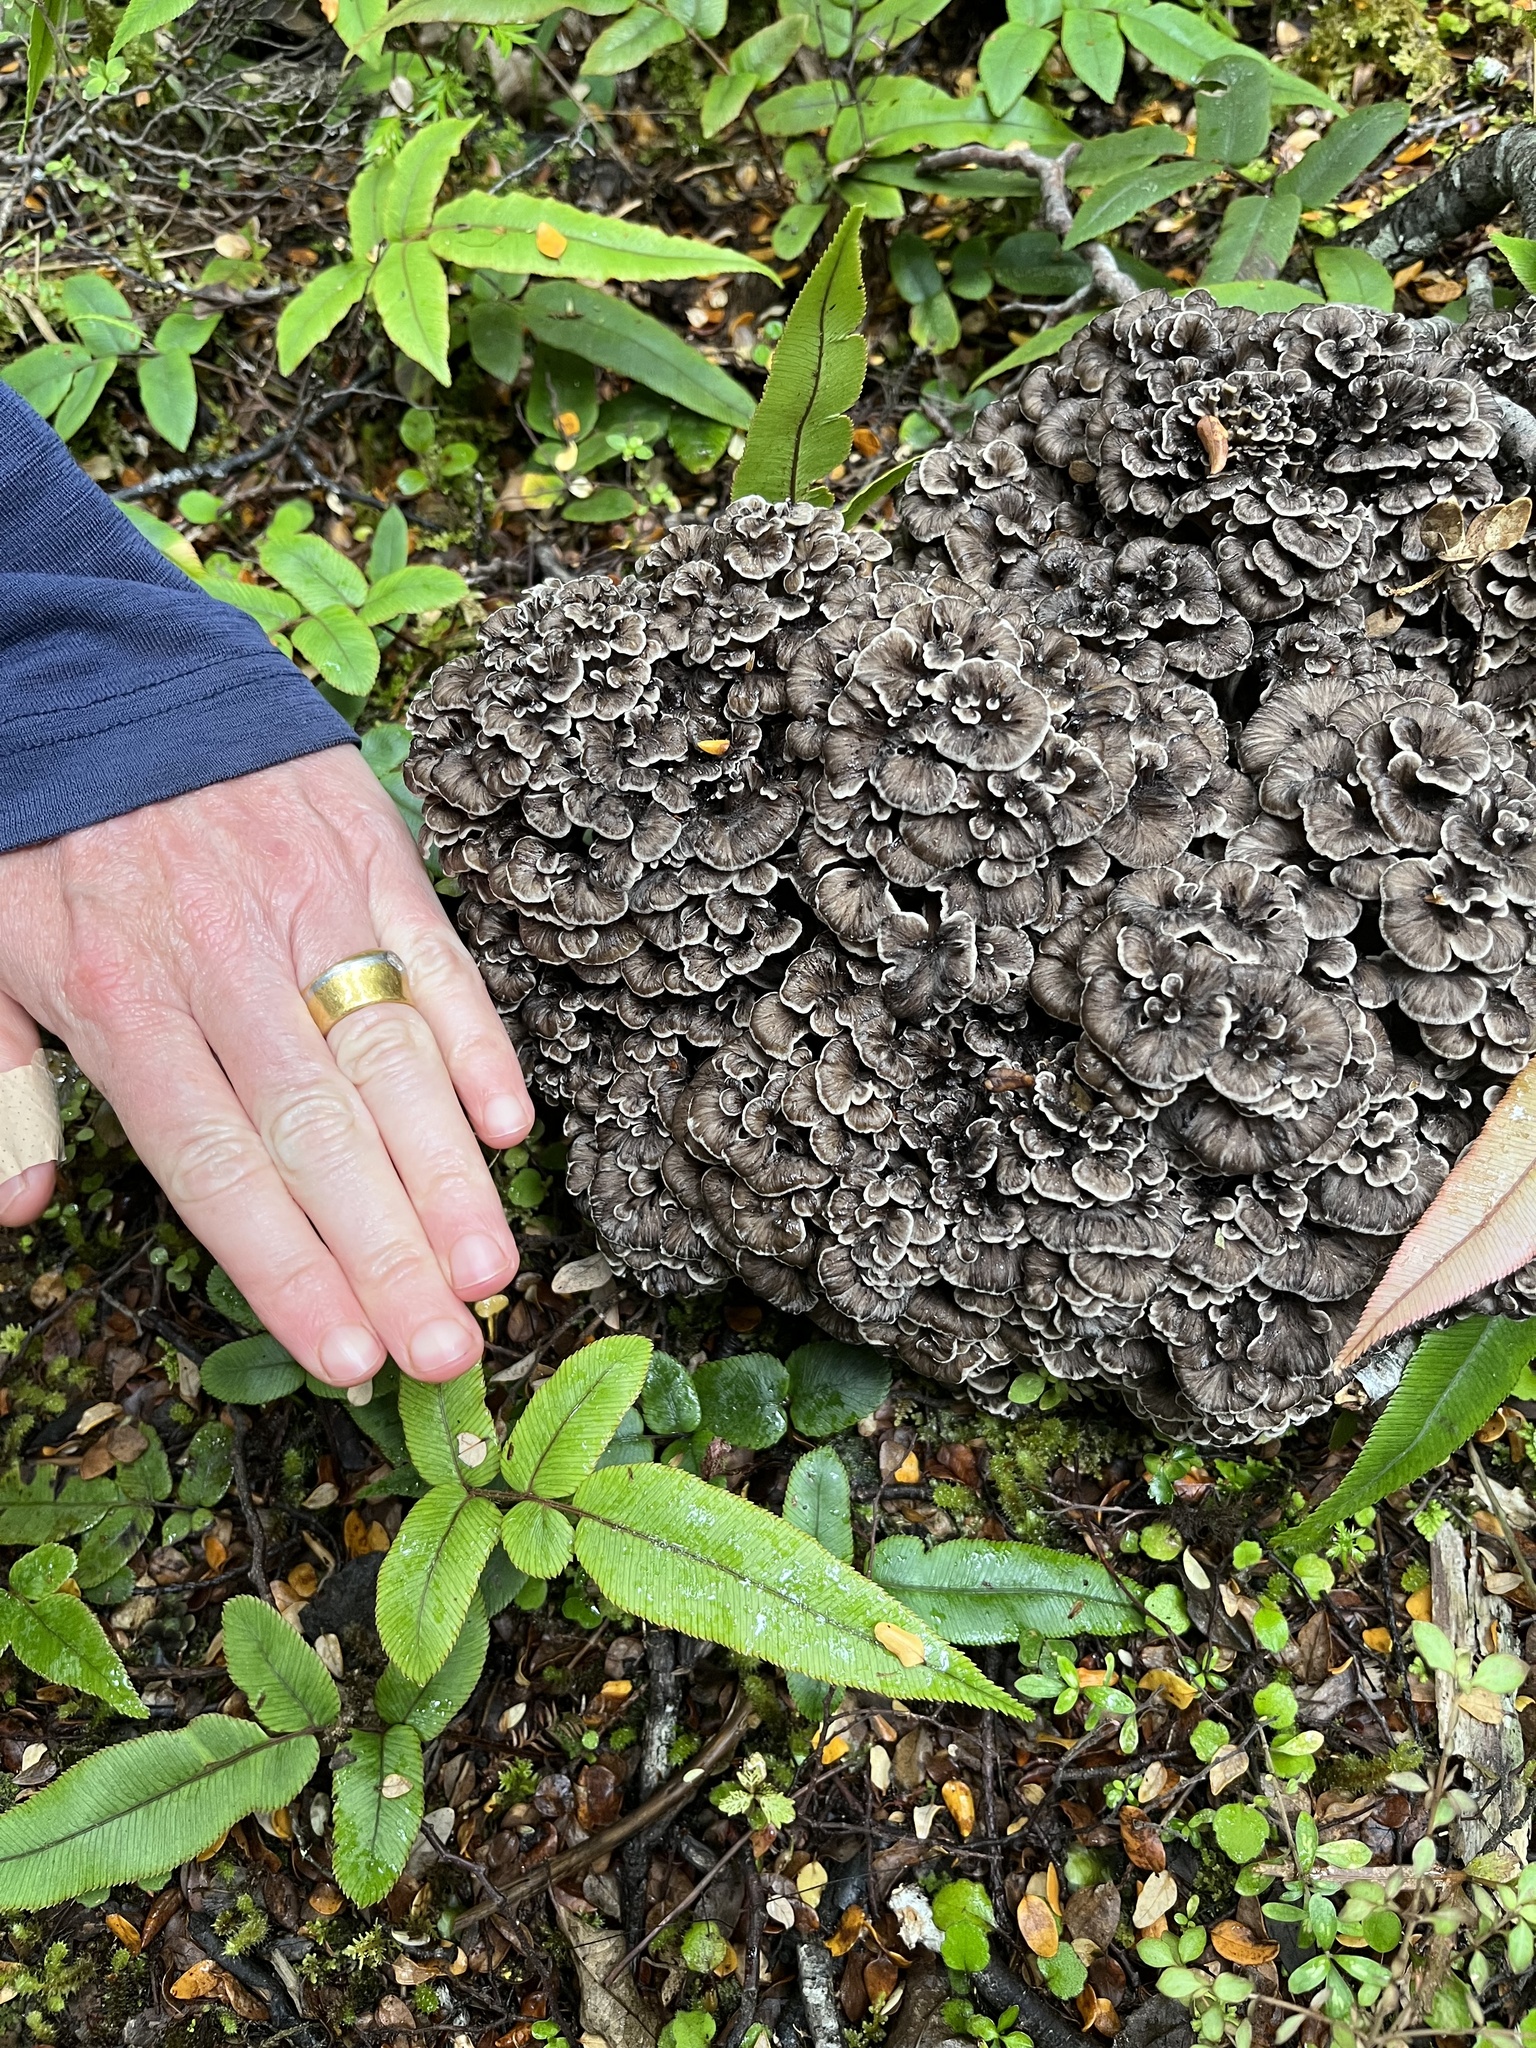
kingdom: Fungi
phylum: Basidiomycota
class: Agaricomycetes
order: Polyporales
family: Grifolaceae
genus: Grifola
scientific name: Grifola colensoi
